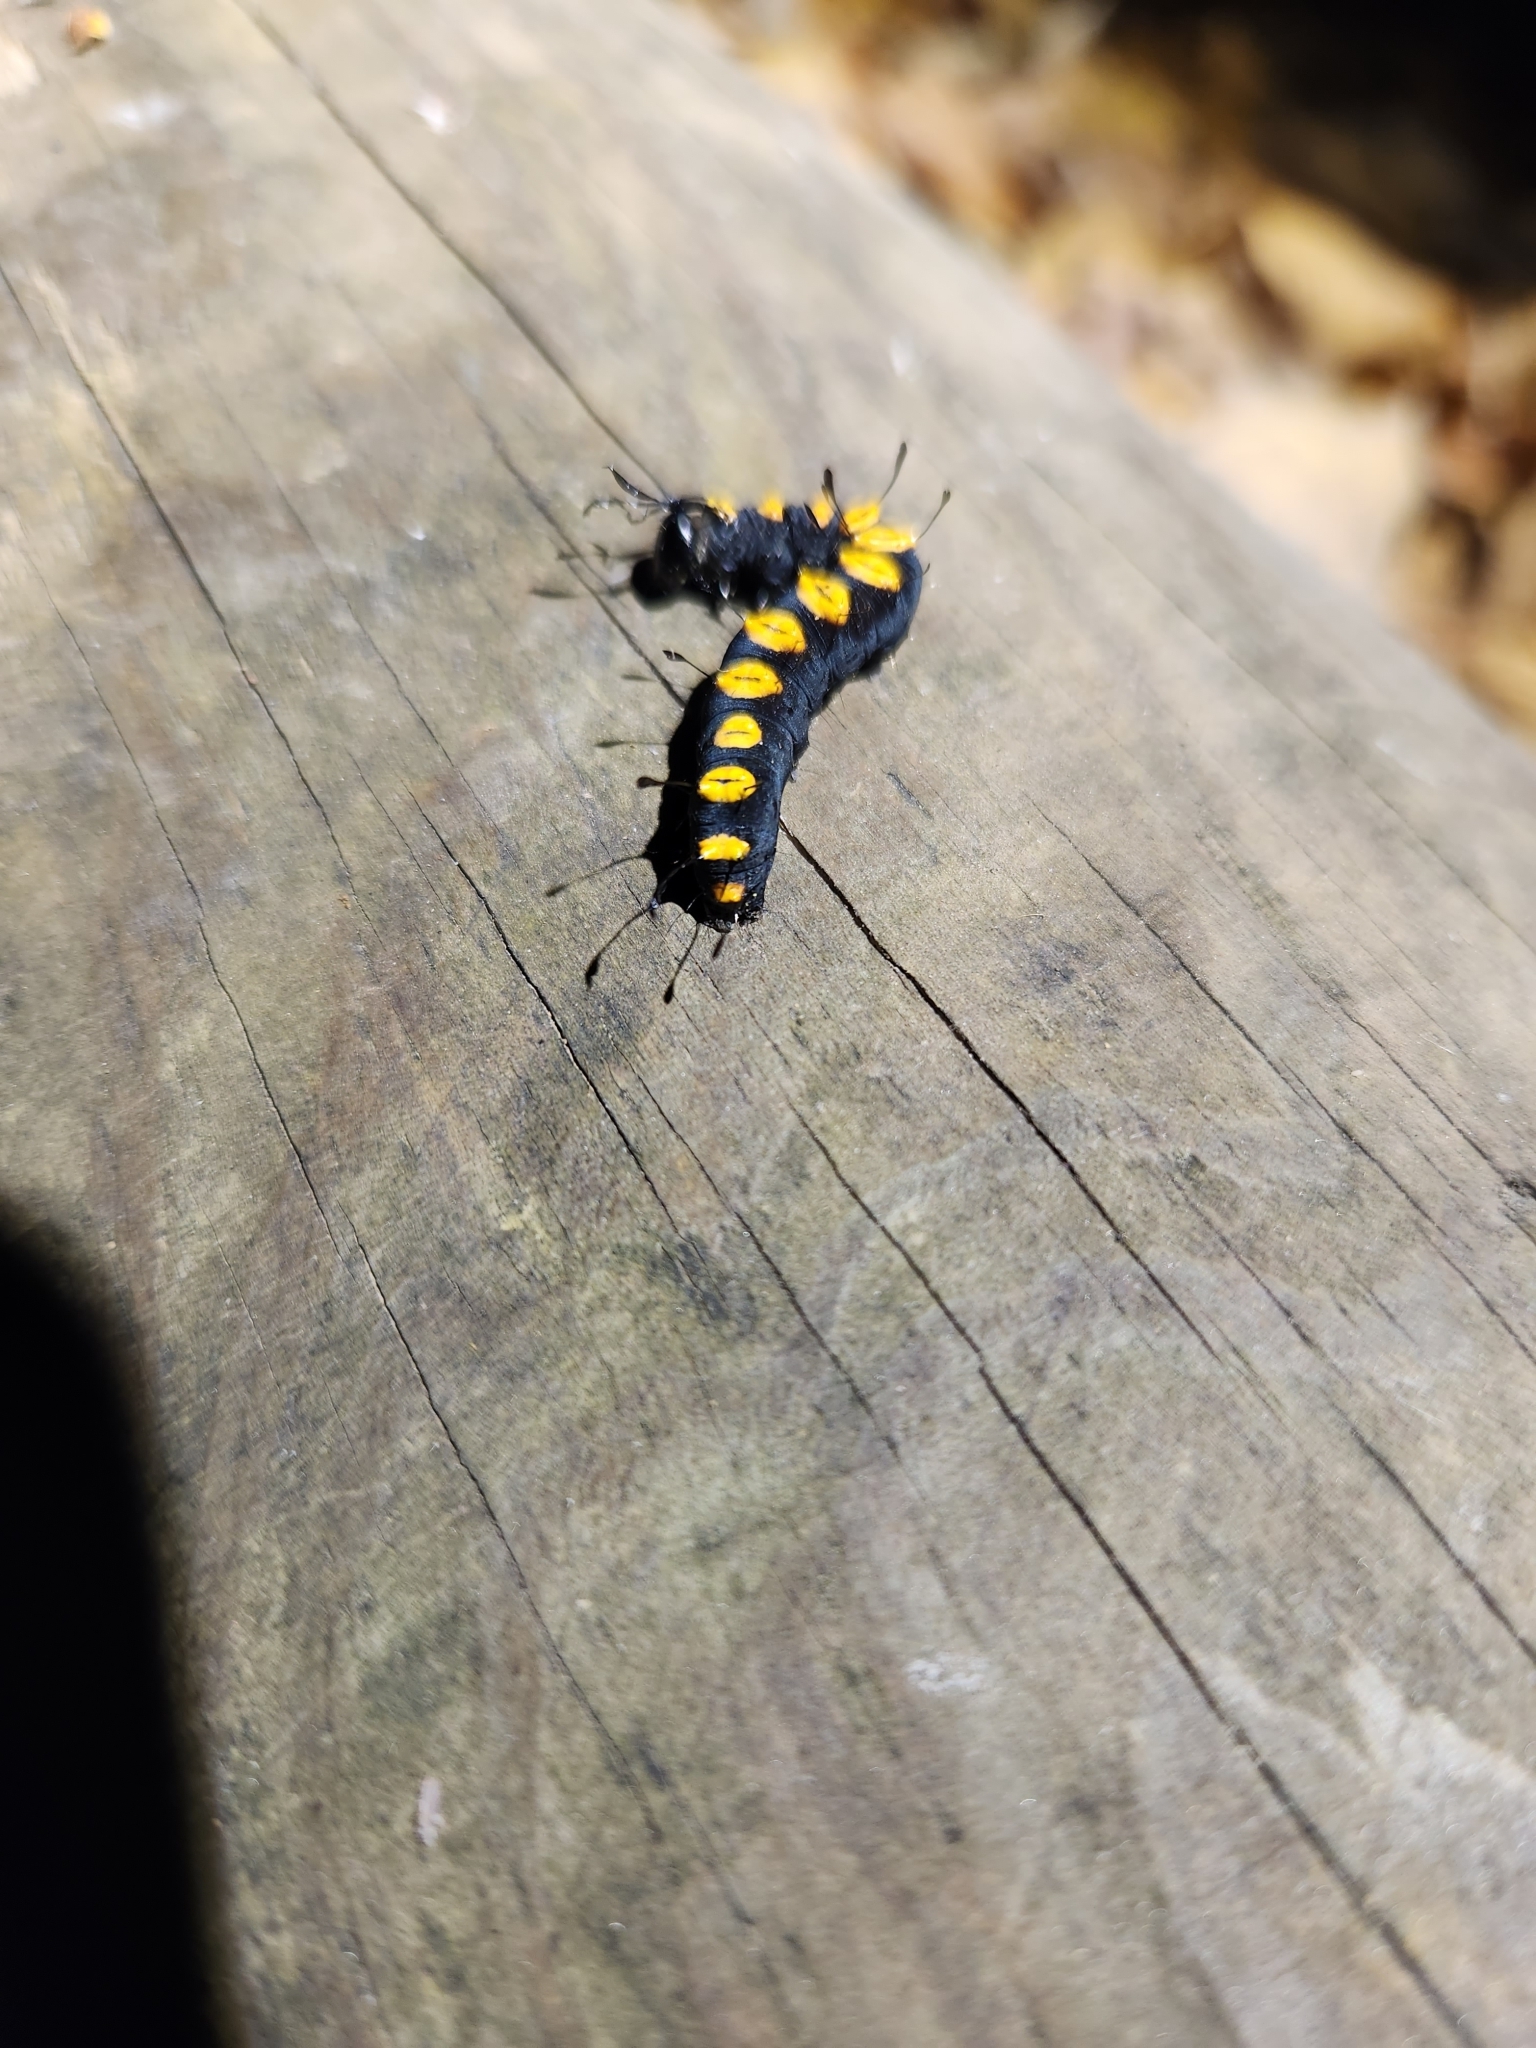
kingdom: Animalia
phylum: Arthropoda
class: Insecta
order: Lepidoptera
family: Noctuidae
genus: Acronicta
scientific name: Acronicta funeralis
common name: Funerary dagger
